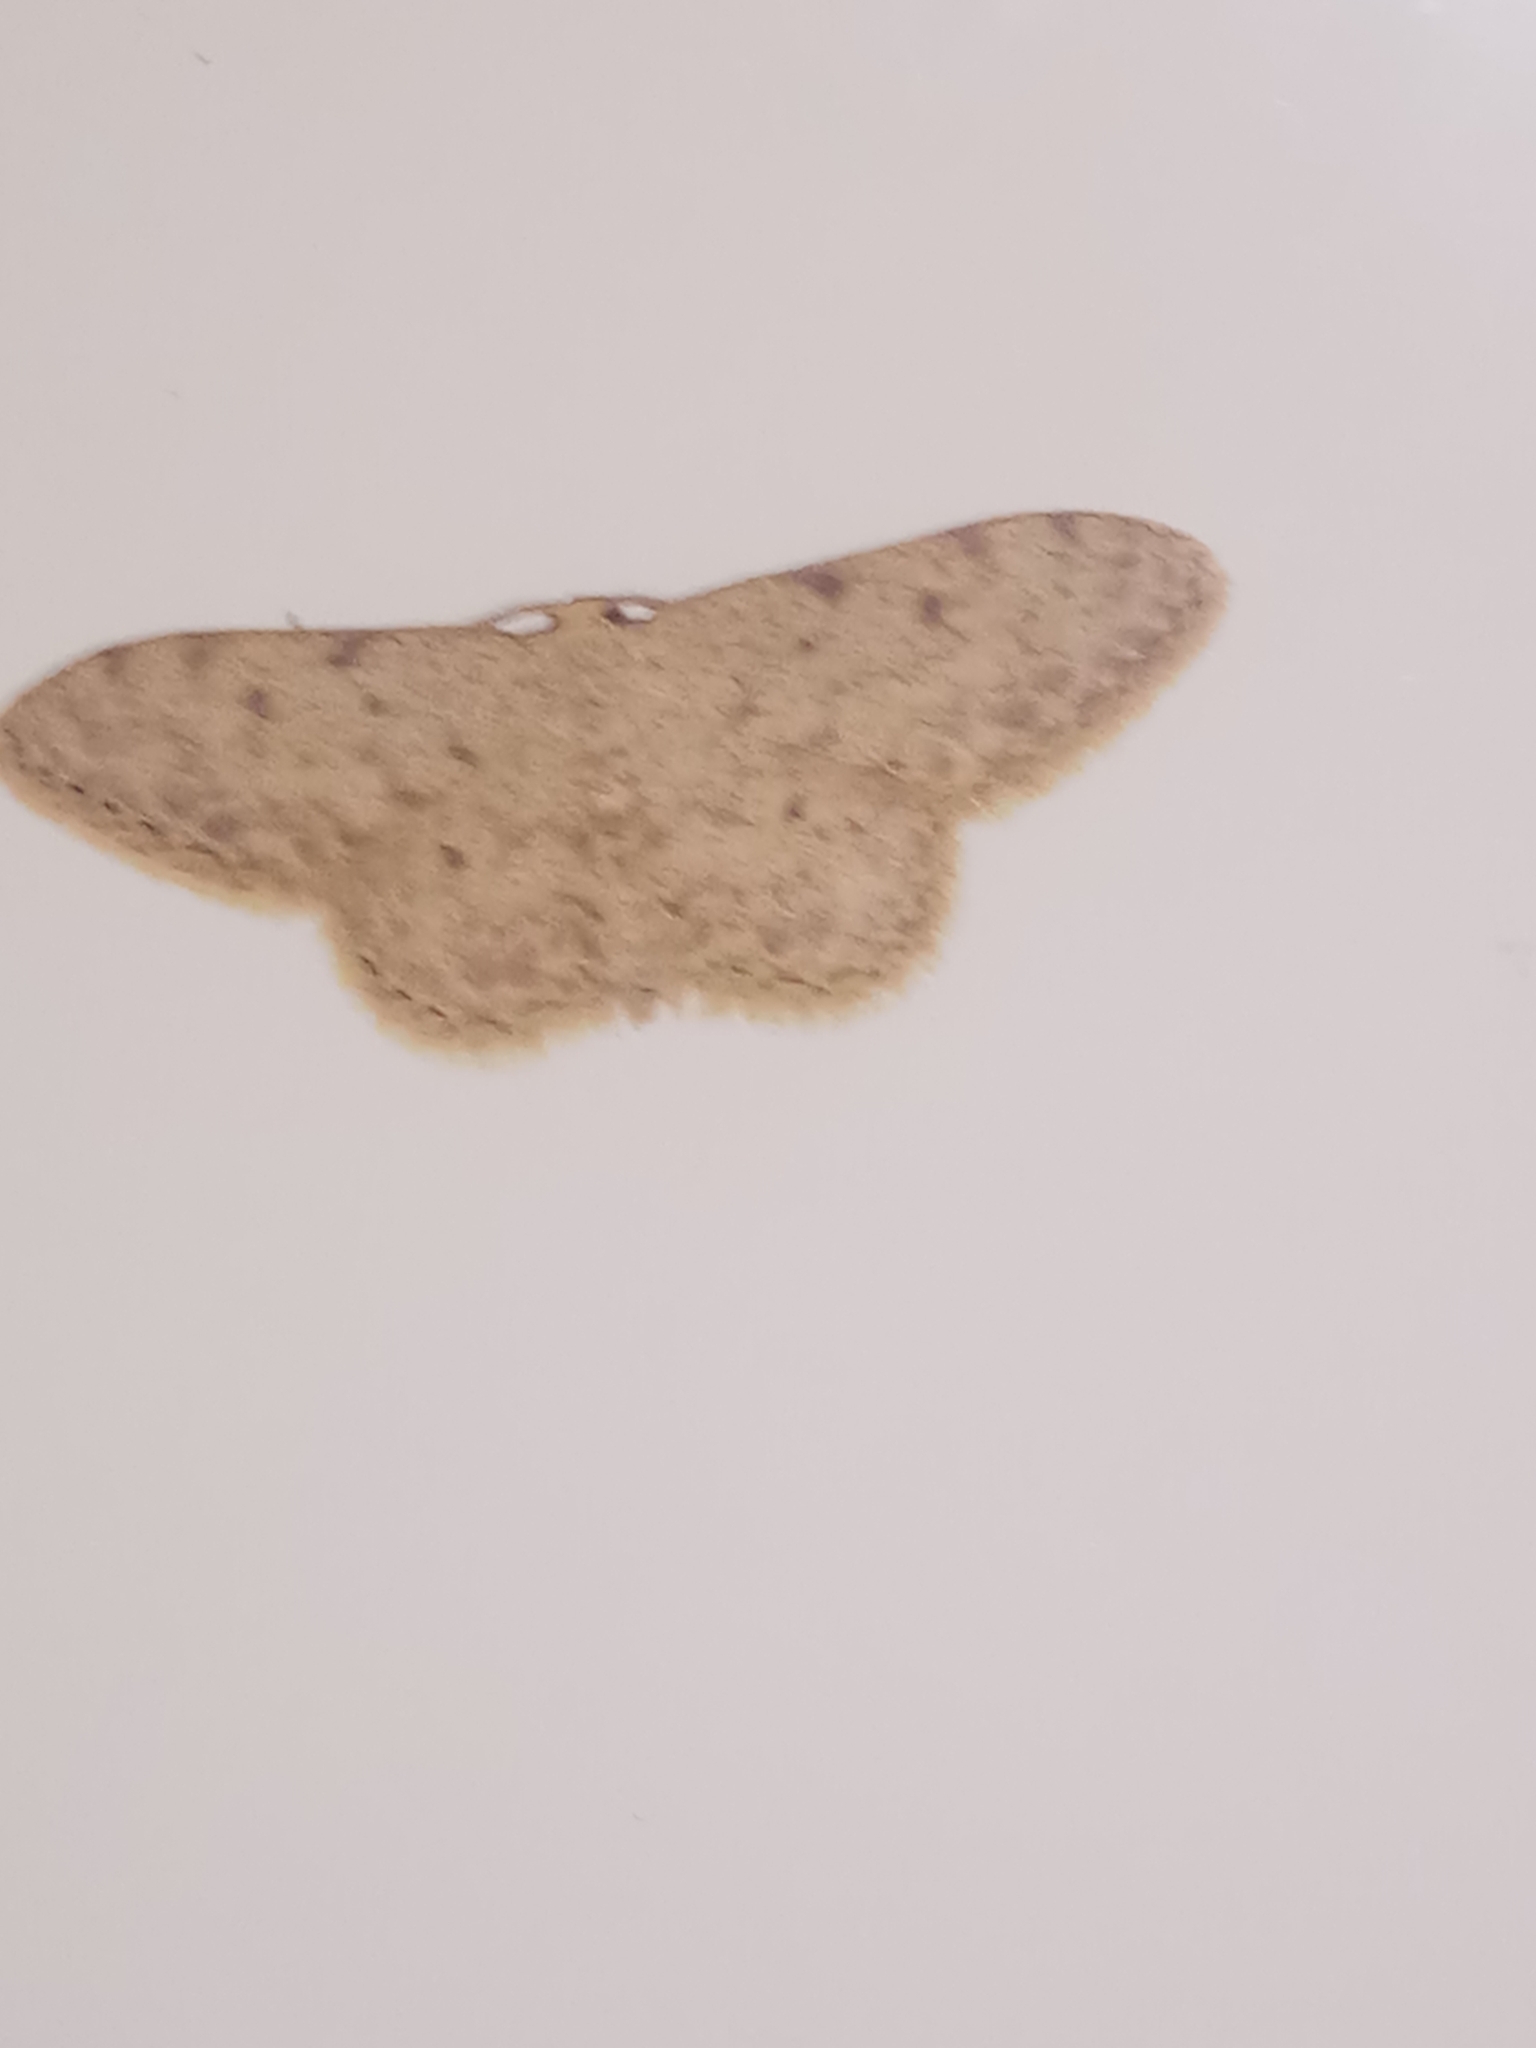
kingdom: Animalia
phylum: Arthropoda
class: Insecta
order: Lepidoptera
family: Geometridae
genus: Idaea
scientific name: Idaea cervantaria
